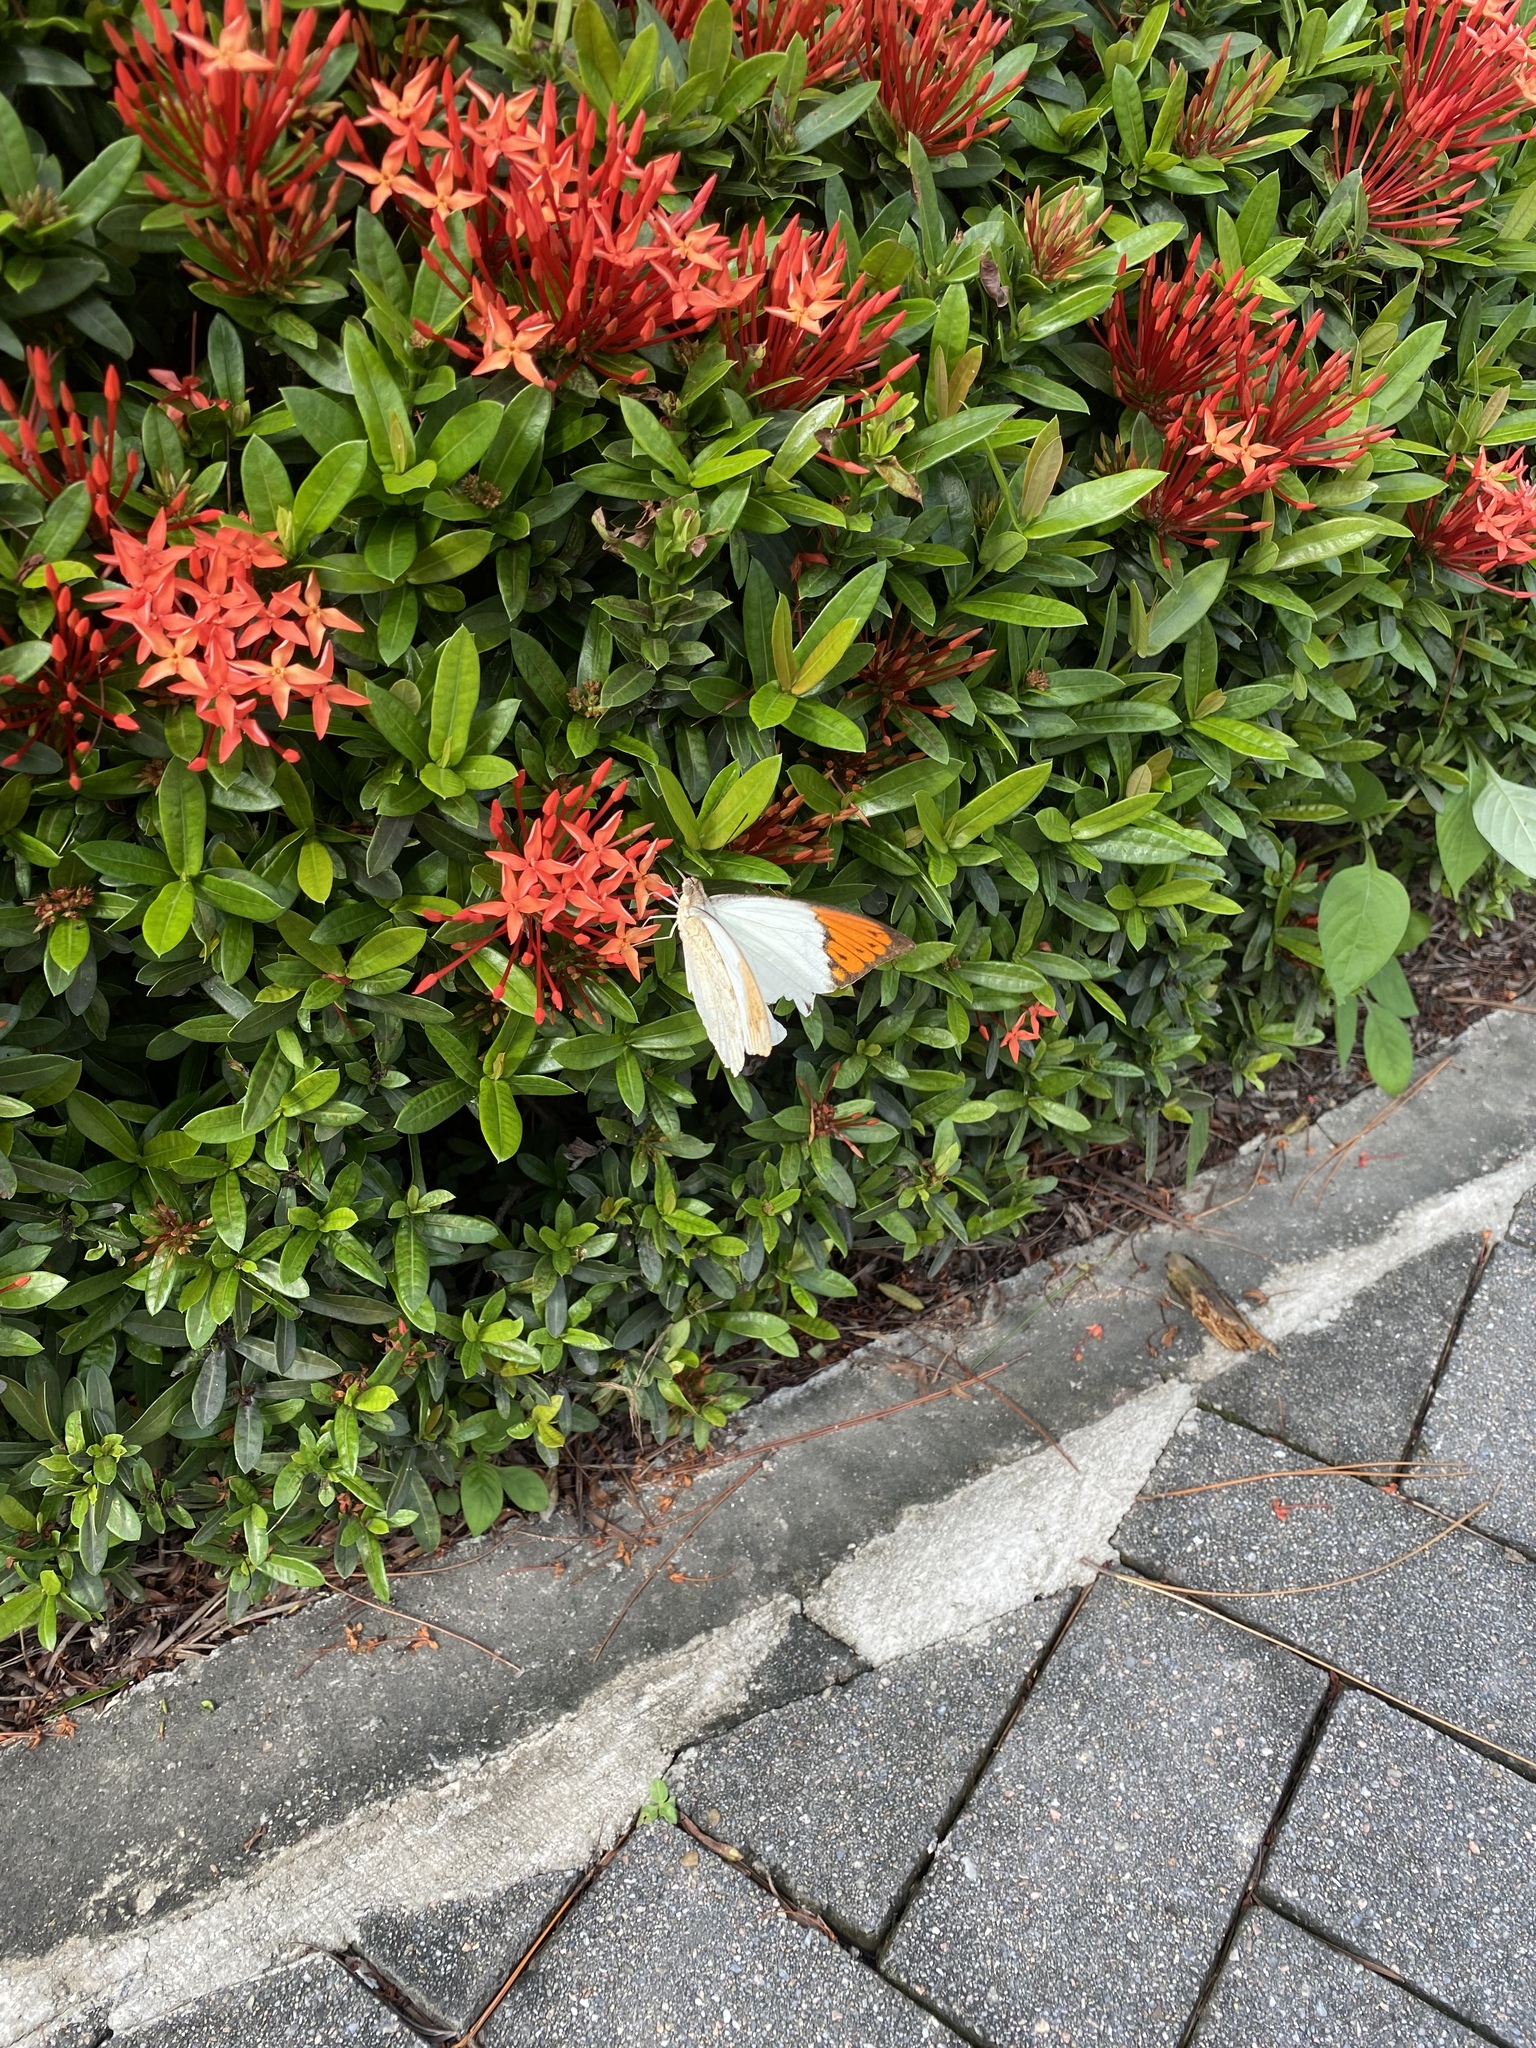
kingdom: Animalia
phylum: Arthropoda
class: Insecta
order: Lepidoptera
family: Pieridae
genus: Hebomoia
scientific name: Hebomoia glaucippe
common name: Great orange tip
